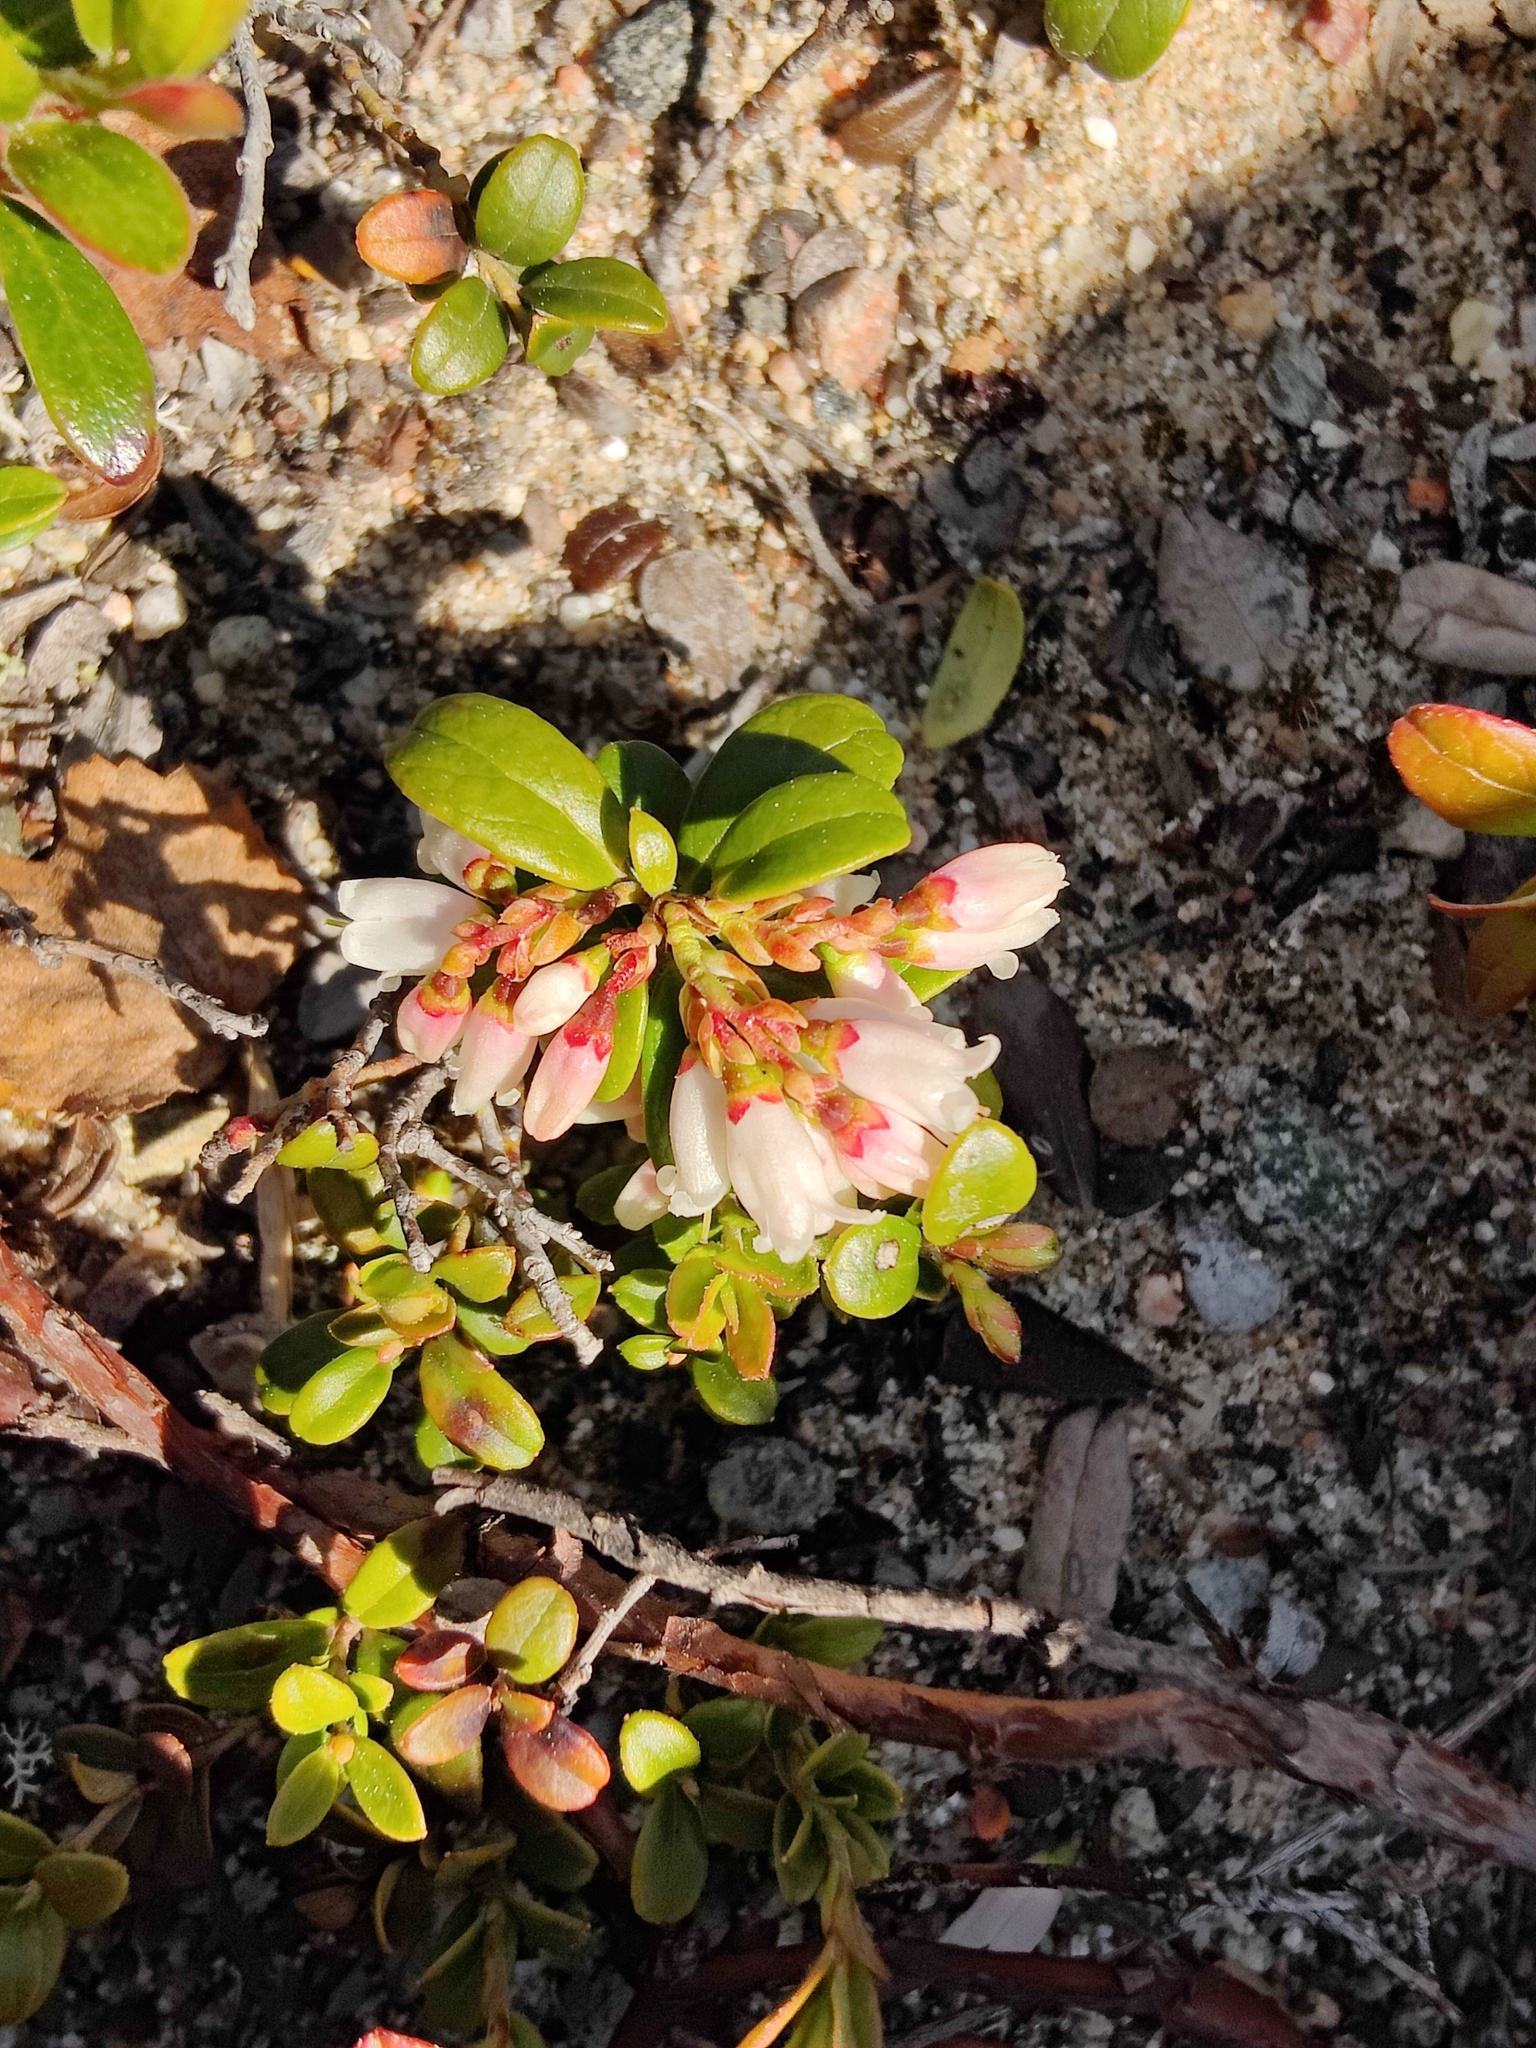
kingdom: Plantae
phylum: Tracheophyta
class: Magnoliopsida
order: Ericales
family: Ericaceae
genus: Vaccinium
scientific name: Vaccinium vitis-idaea
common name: Cowberry
